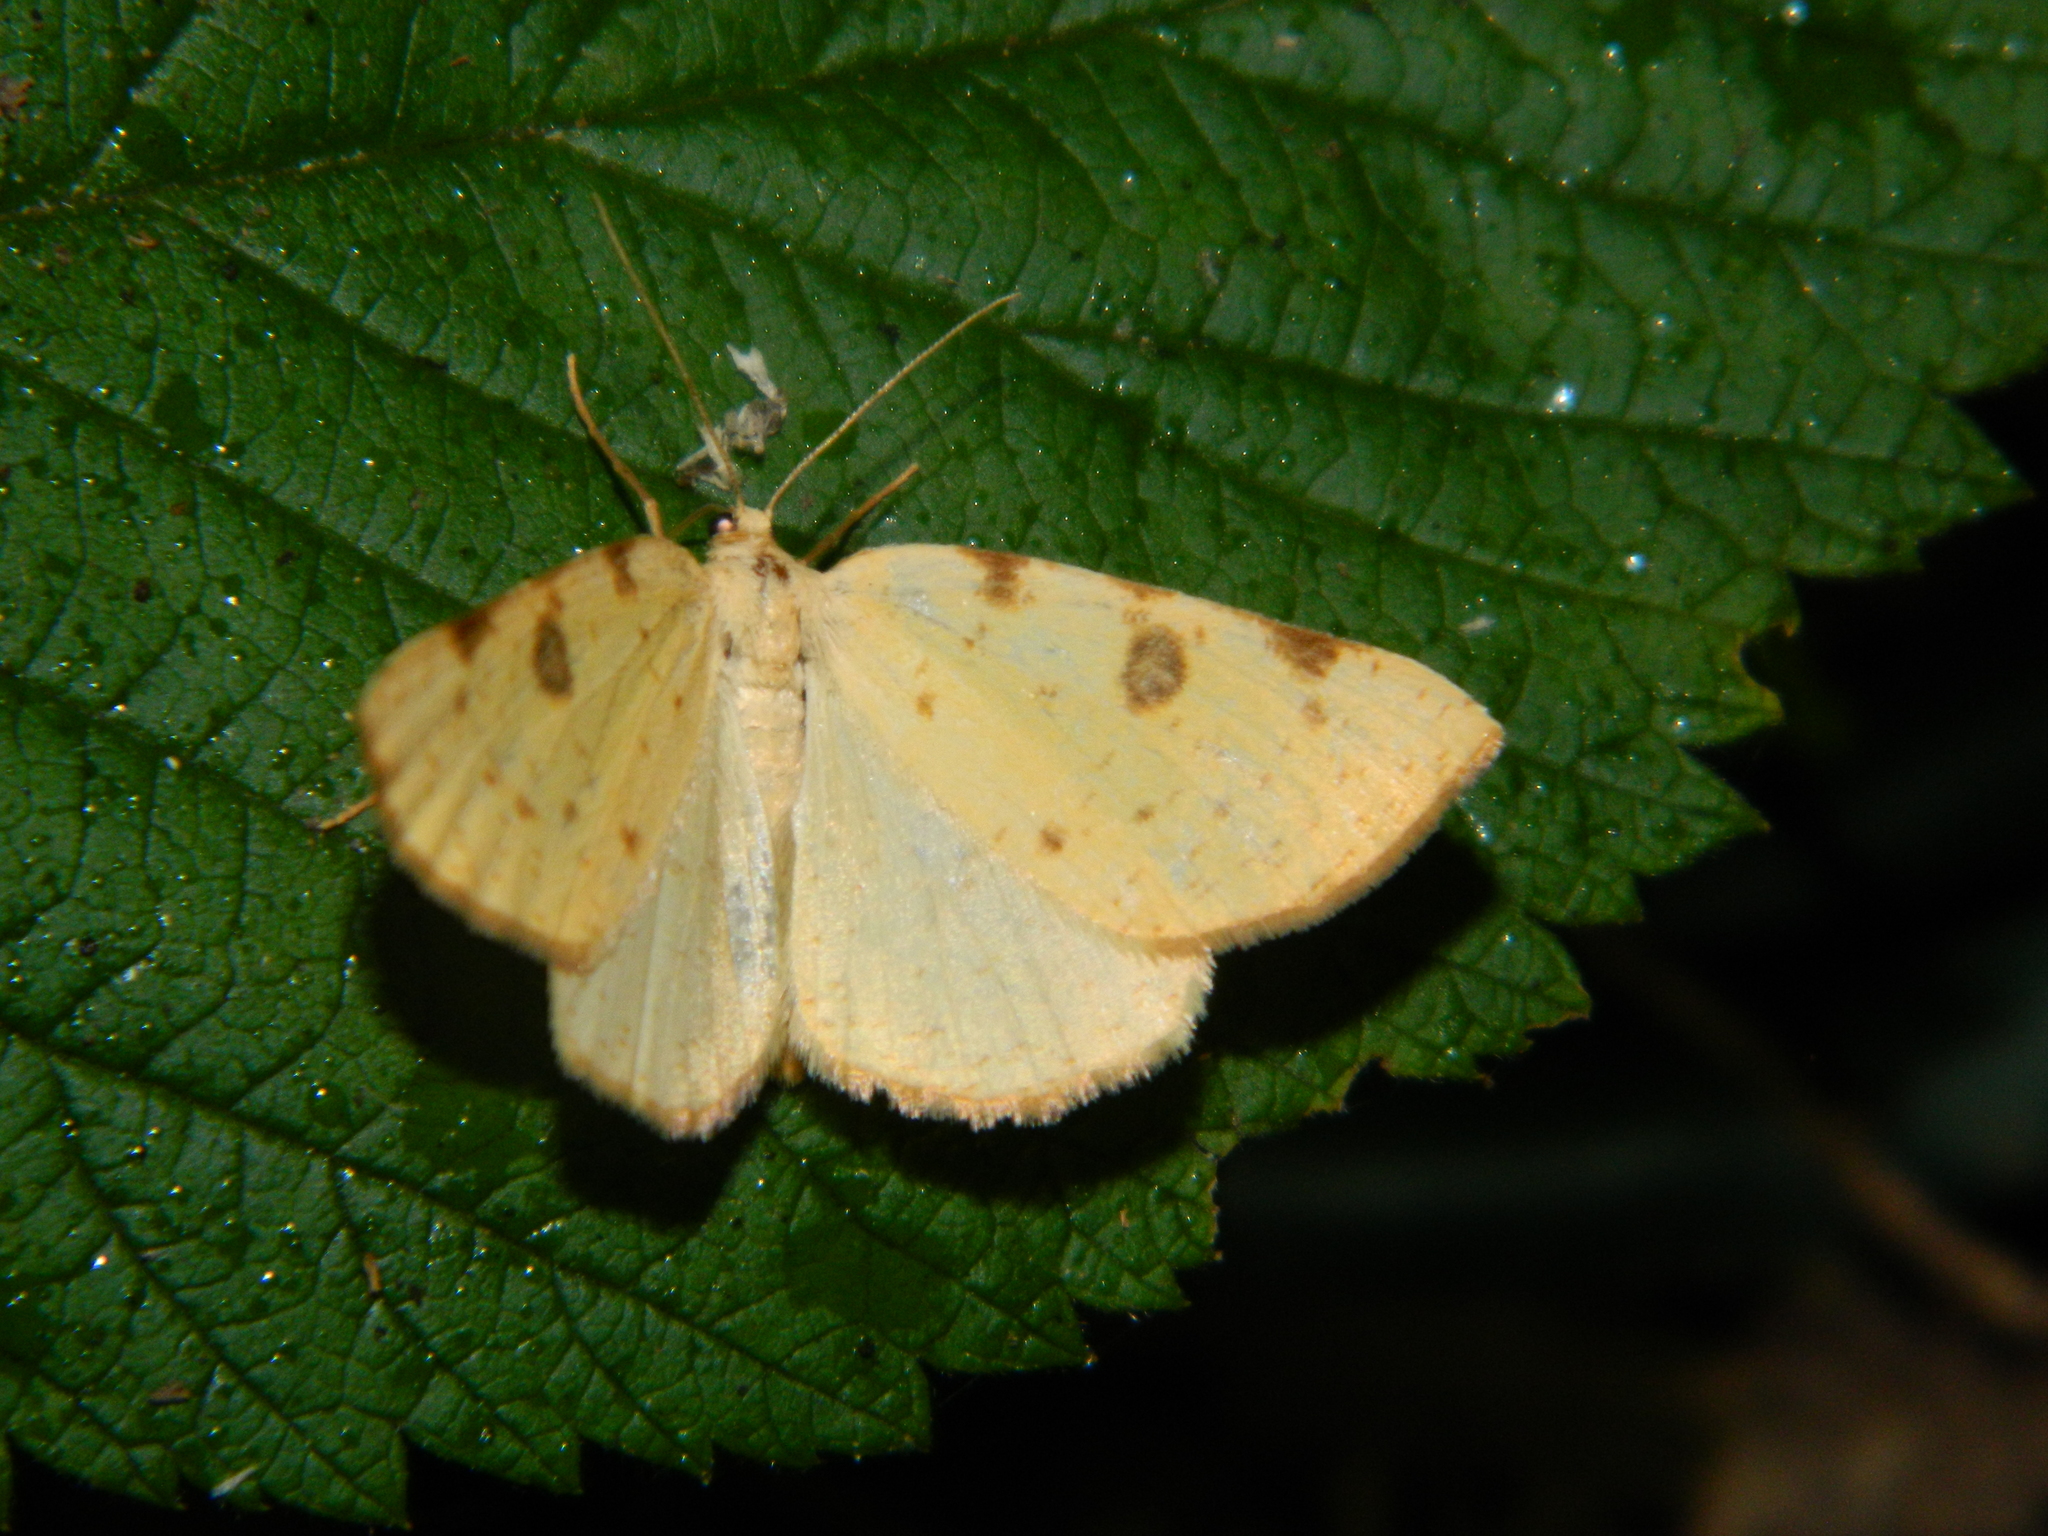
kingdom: Animalia
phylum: Arthropoda
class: Insecta
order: Lepidoptera
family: Geometridae
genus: Hesperumia
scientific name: Hesperumia sulphuraria
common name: Sulphur moth
